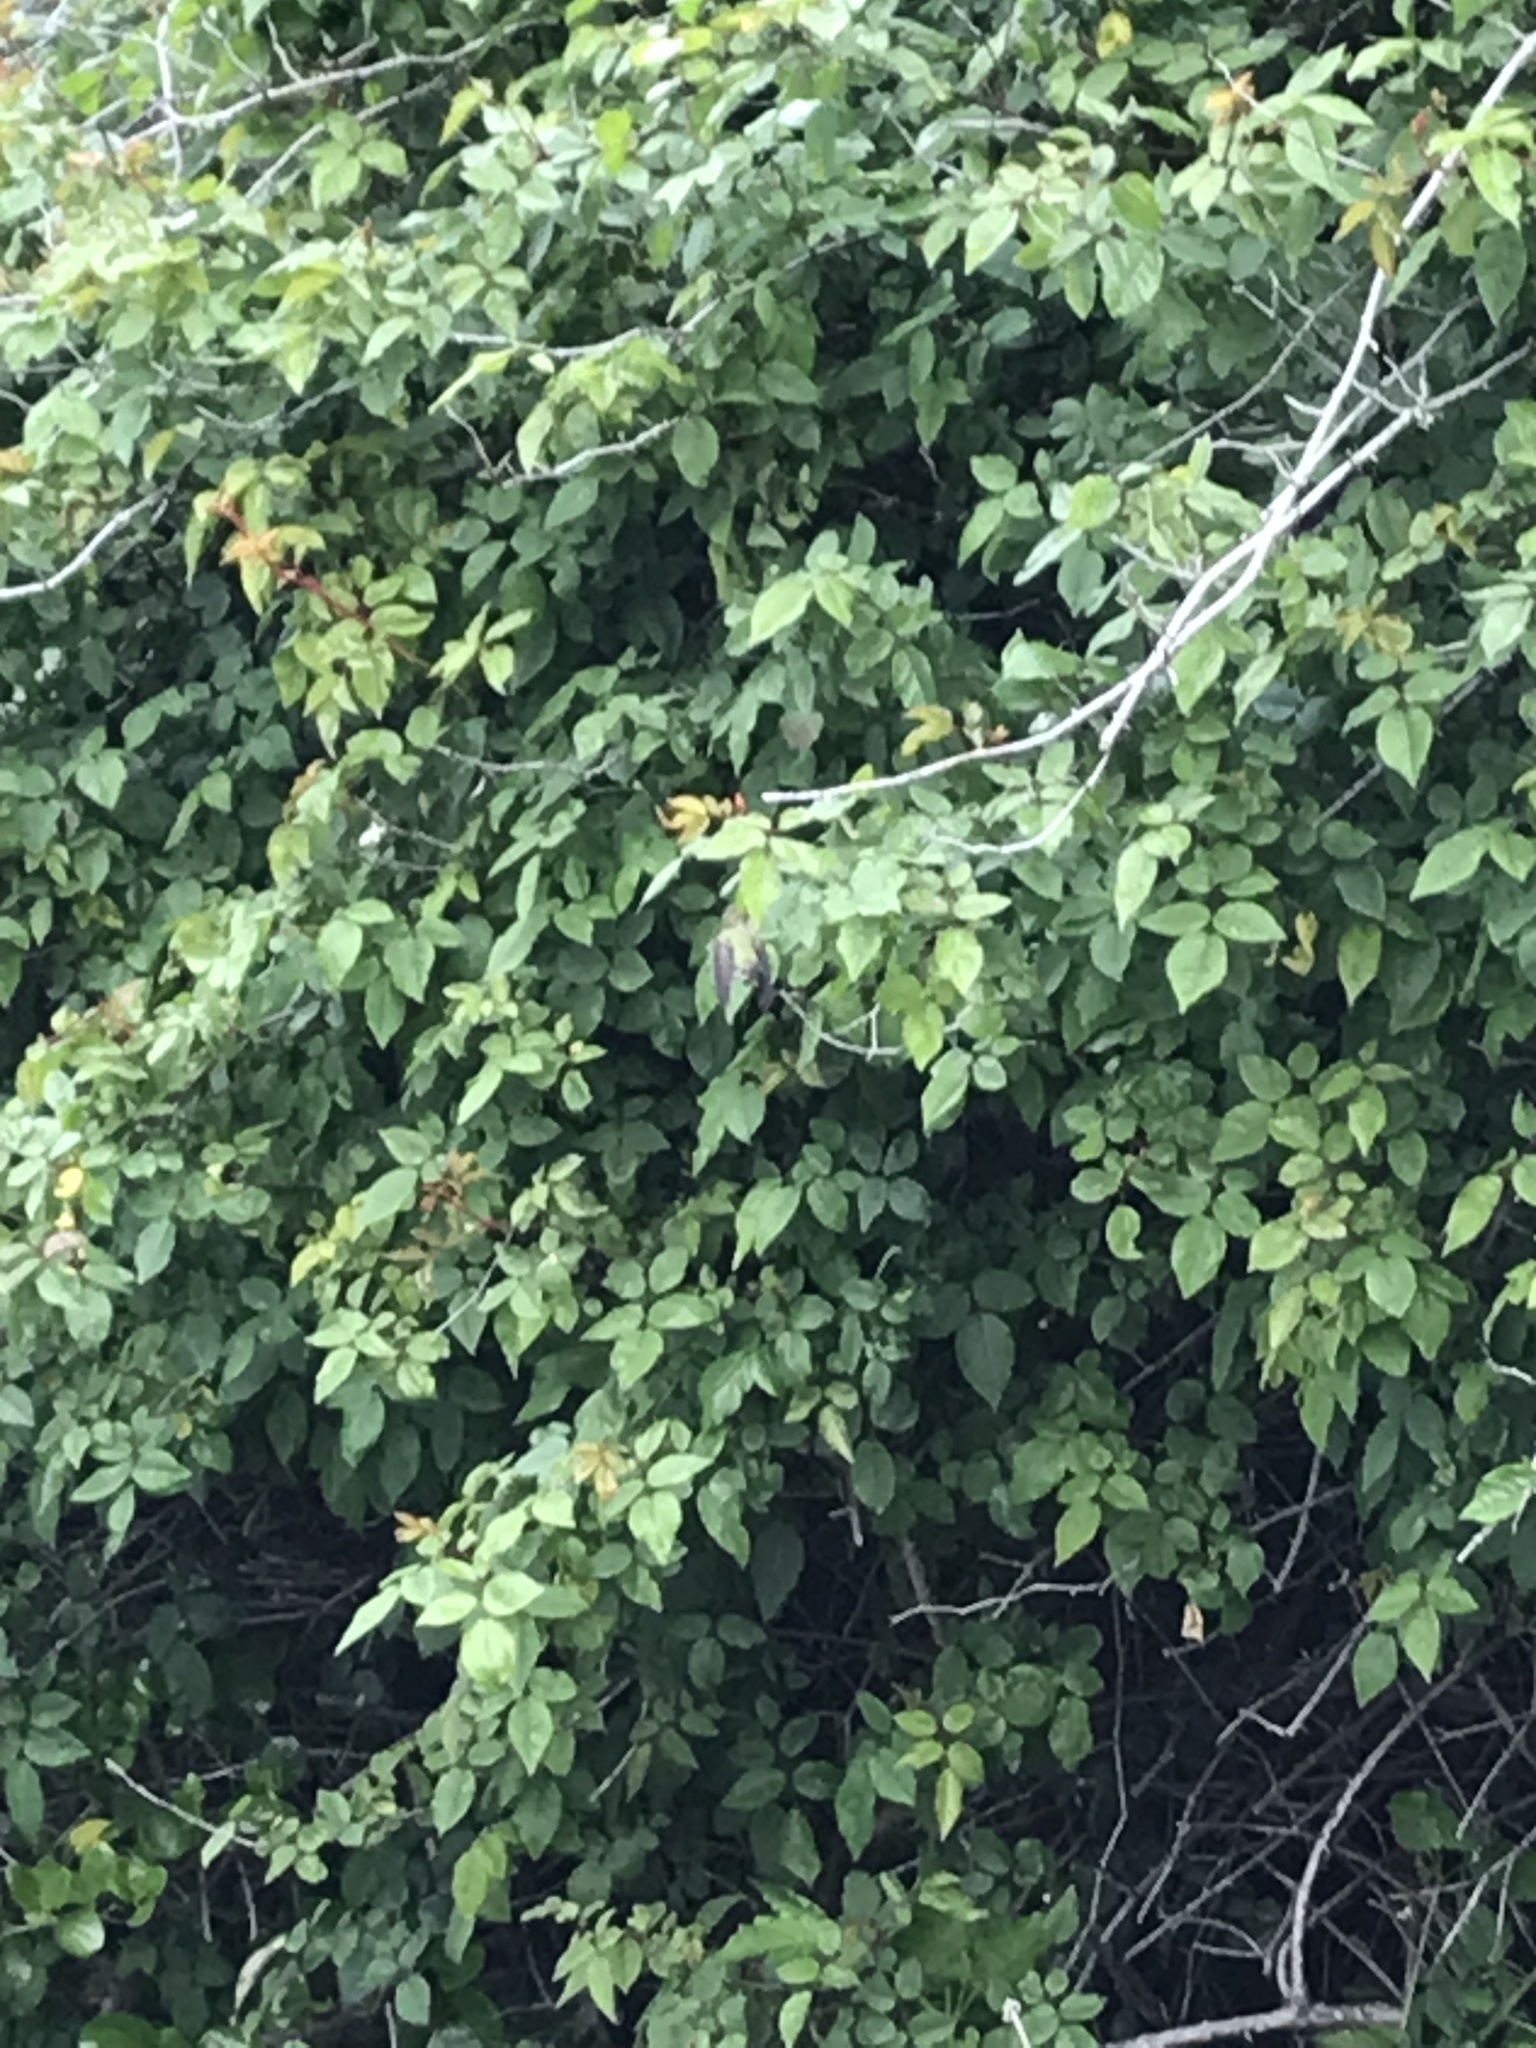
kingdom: Animalia
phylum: Chordata
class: Aves
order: Apodiformes
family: Trochilidae
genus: Calypte
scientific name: Calypte anna
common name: Anna's hummingbird
